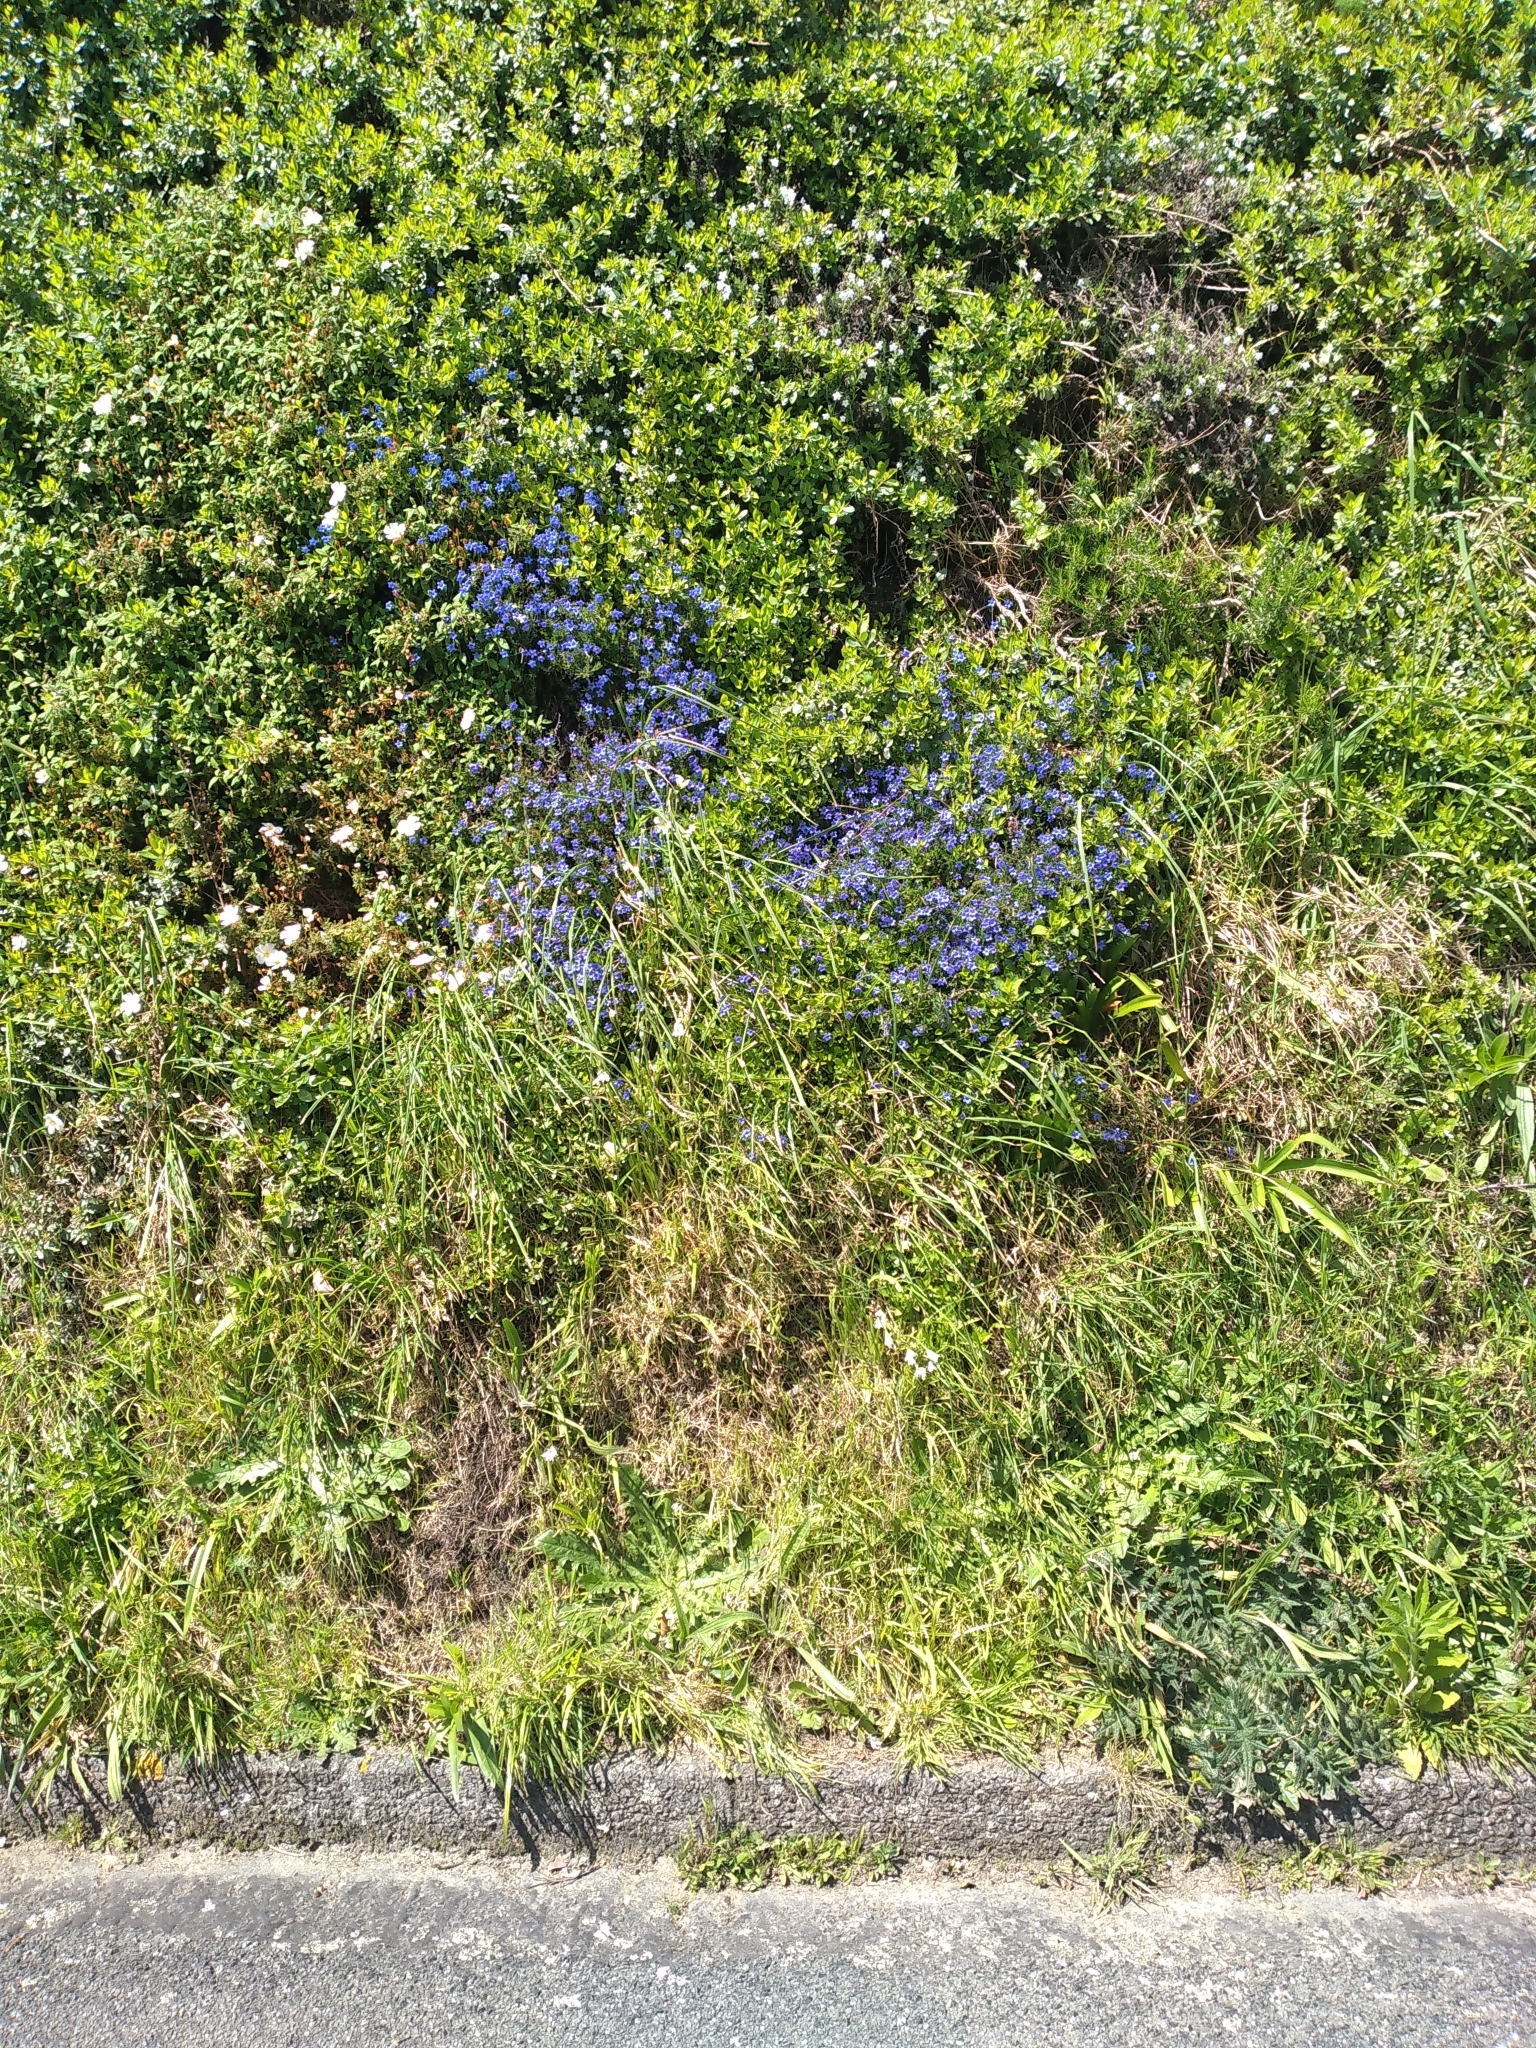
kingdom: Plantae
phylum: Tracheophyta
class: Magnoliopsida
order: Boraginales
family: Boraginaceae
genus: Glandora
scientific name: Glandora prostrata
